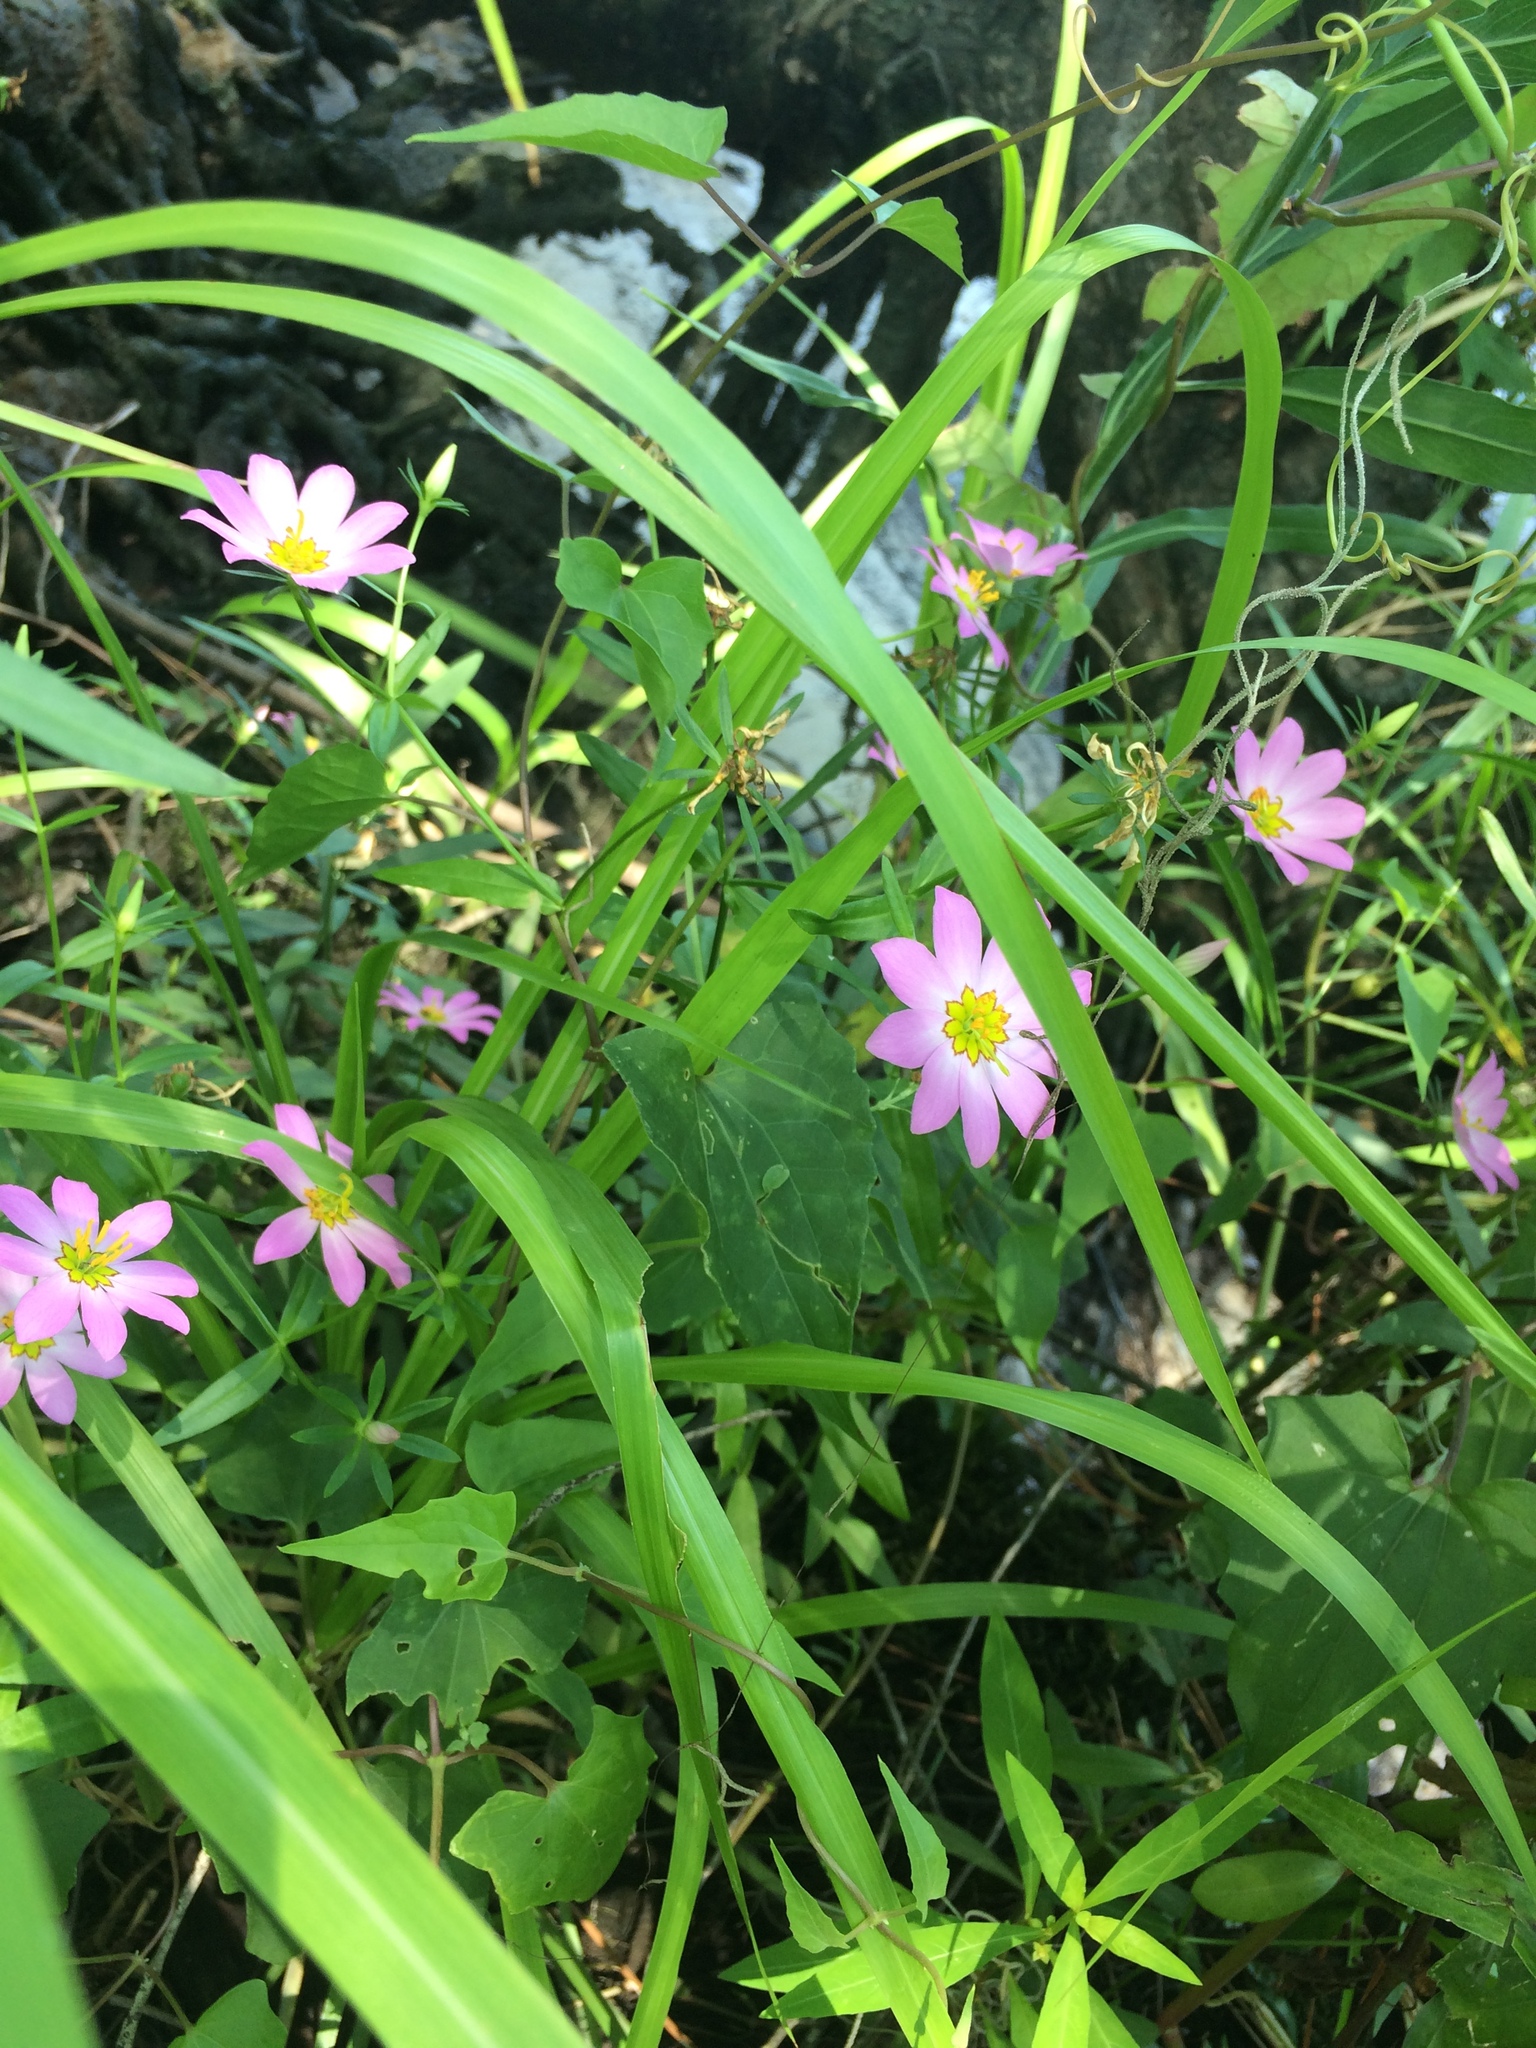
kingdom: Plantae
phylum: Tracheophyta
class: Magnoliopsida
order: Gentianales
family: Gentianaceae
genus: Sabatia
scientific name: Sabatia dodecandra
